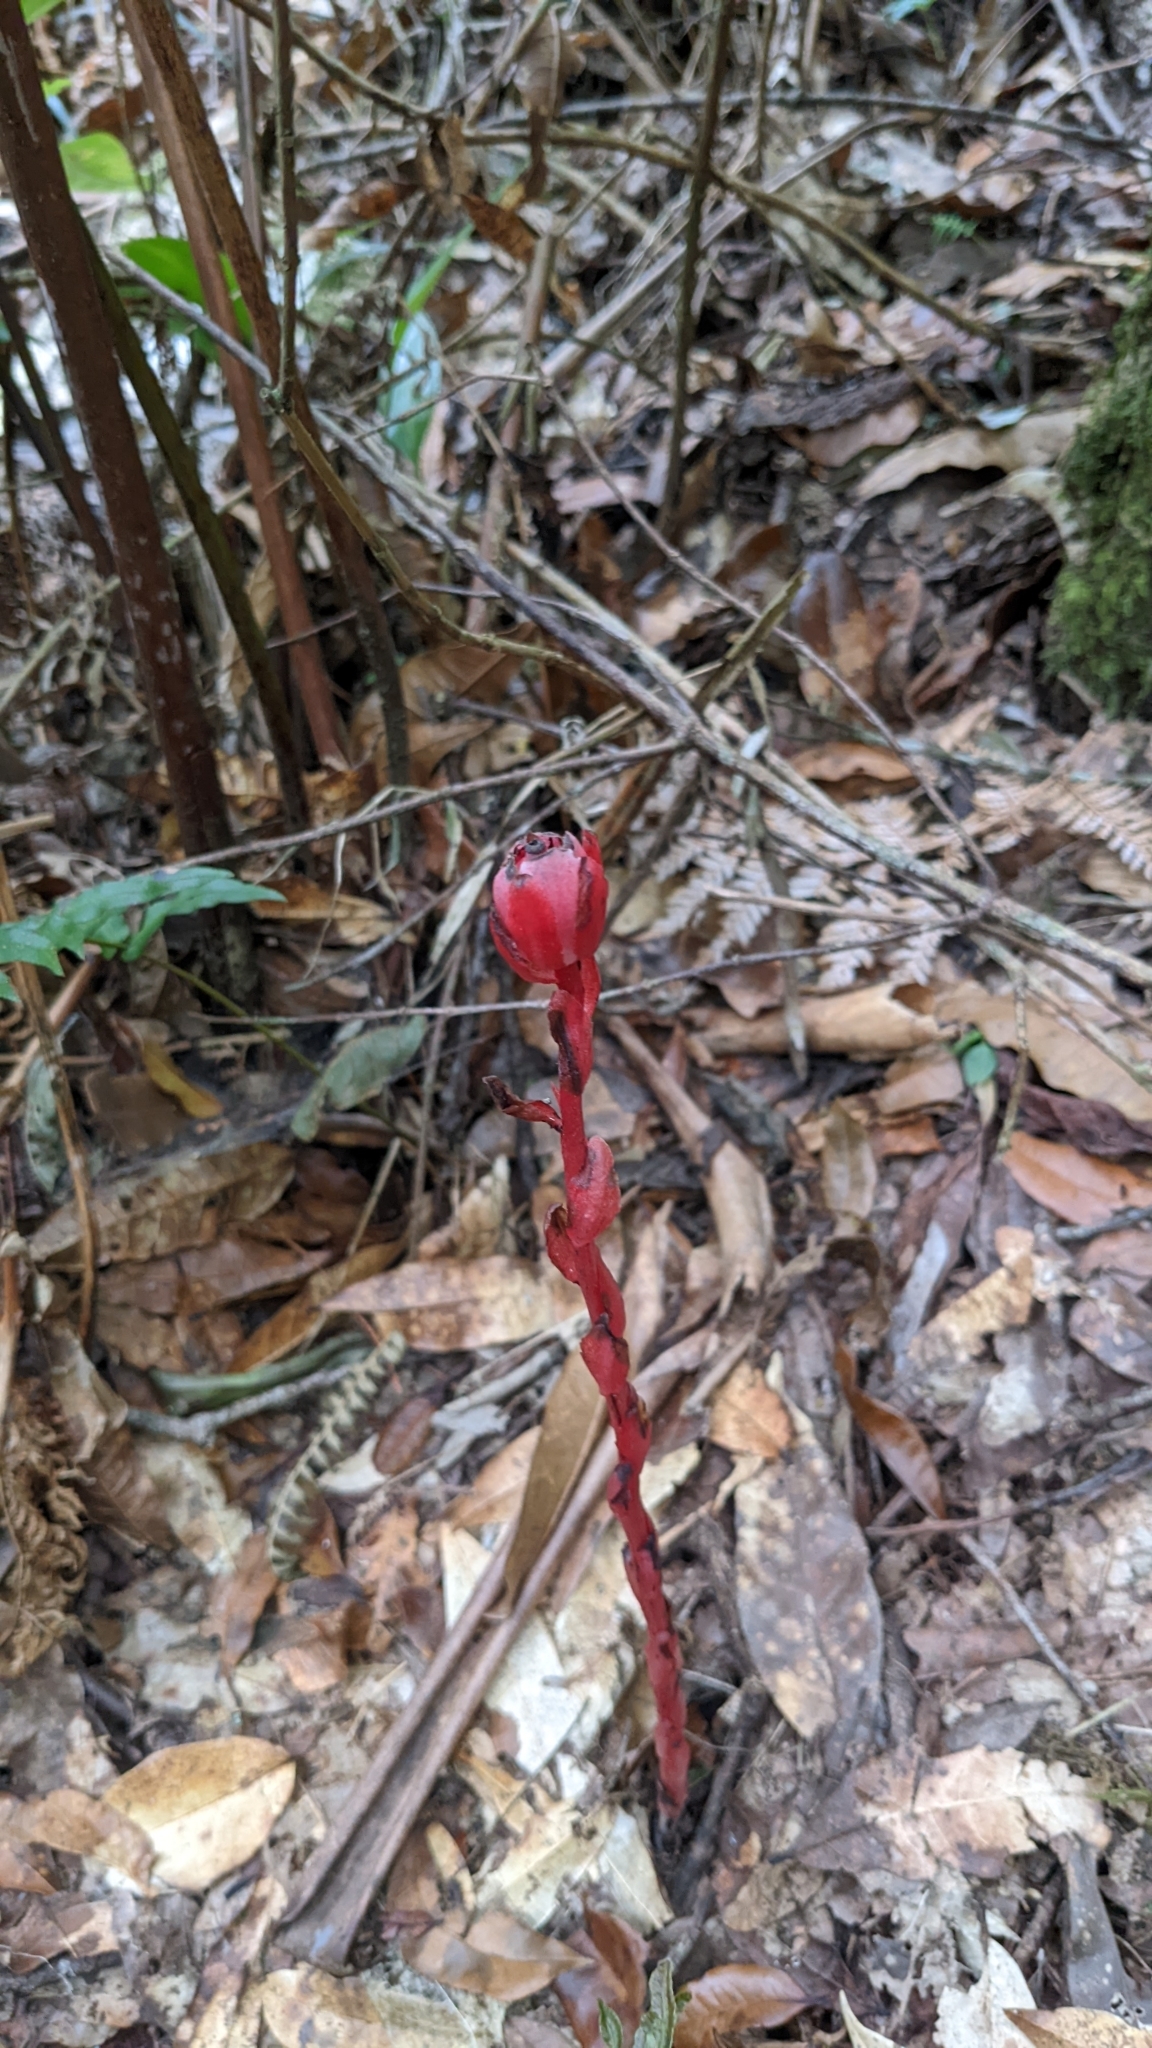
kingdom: Plantae
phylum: Tracheophyta
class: Magnoliopsida
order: Ericales
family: Ericaceae
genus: Monotropa
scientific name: Monotropa coccinea
